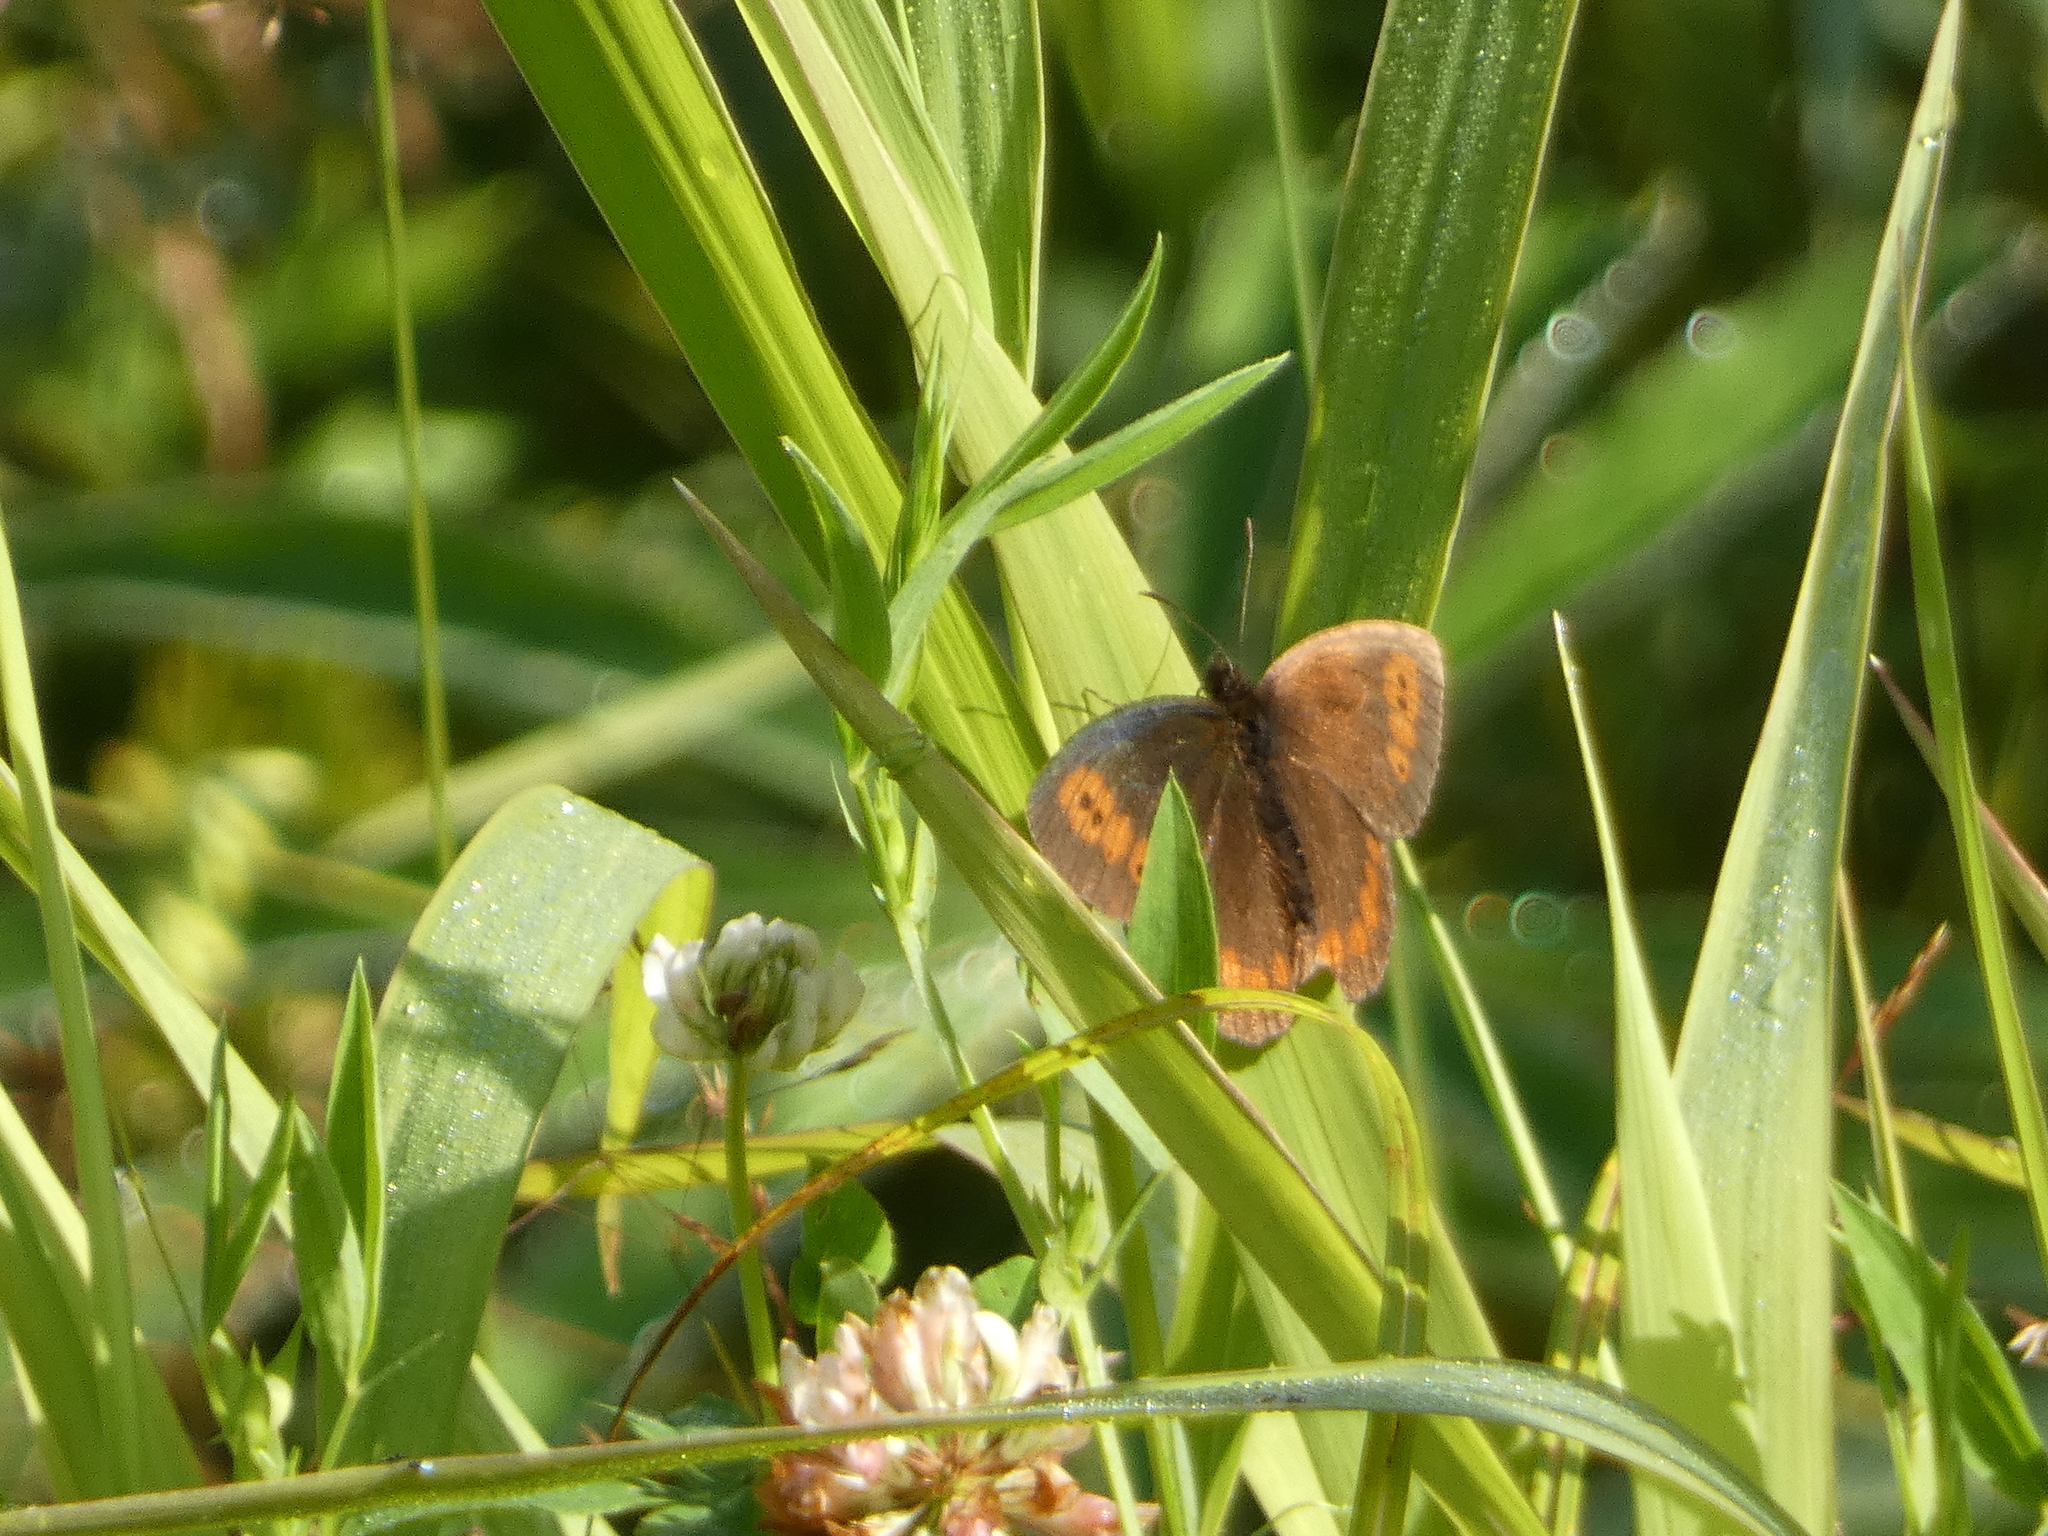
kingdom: Animalia
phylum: Arthropoda
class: Insecta
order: Lepidoptera
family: Nymphalidae
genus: Erebia
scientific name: Erebia euryale
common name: Large ringlet
